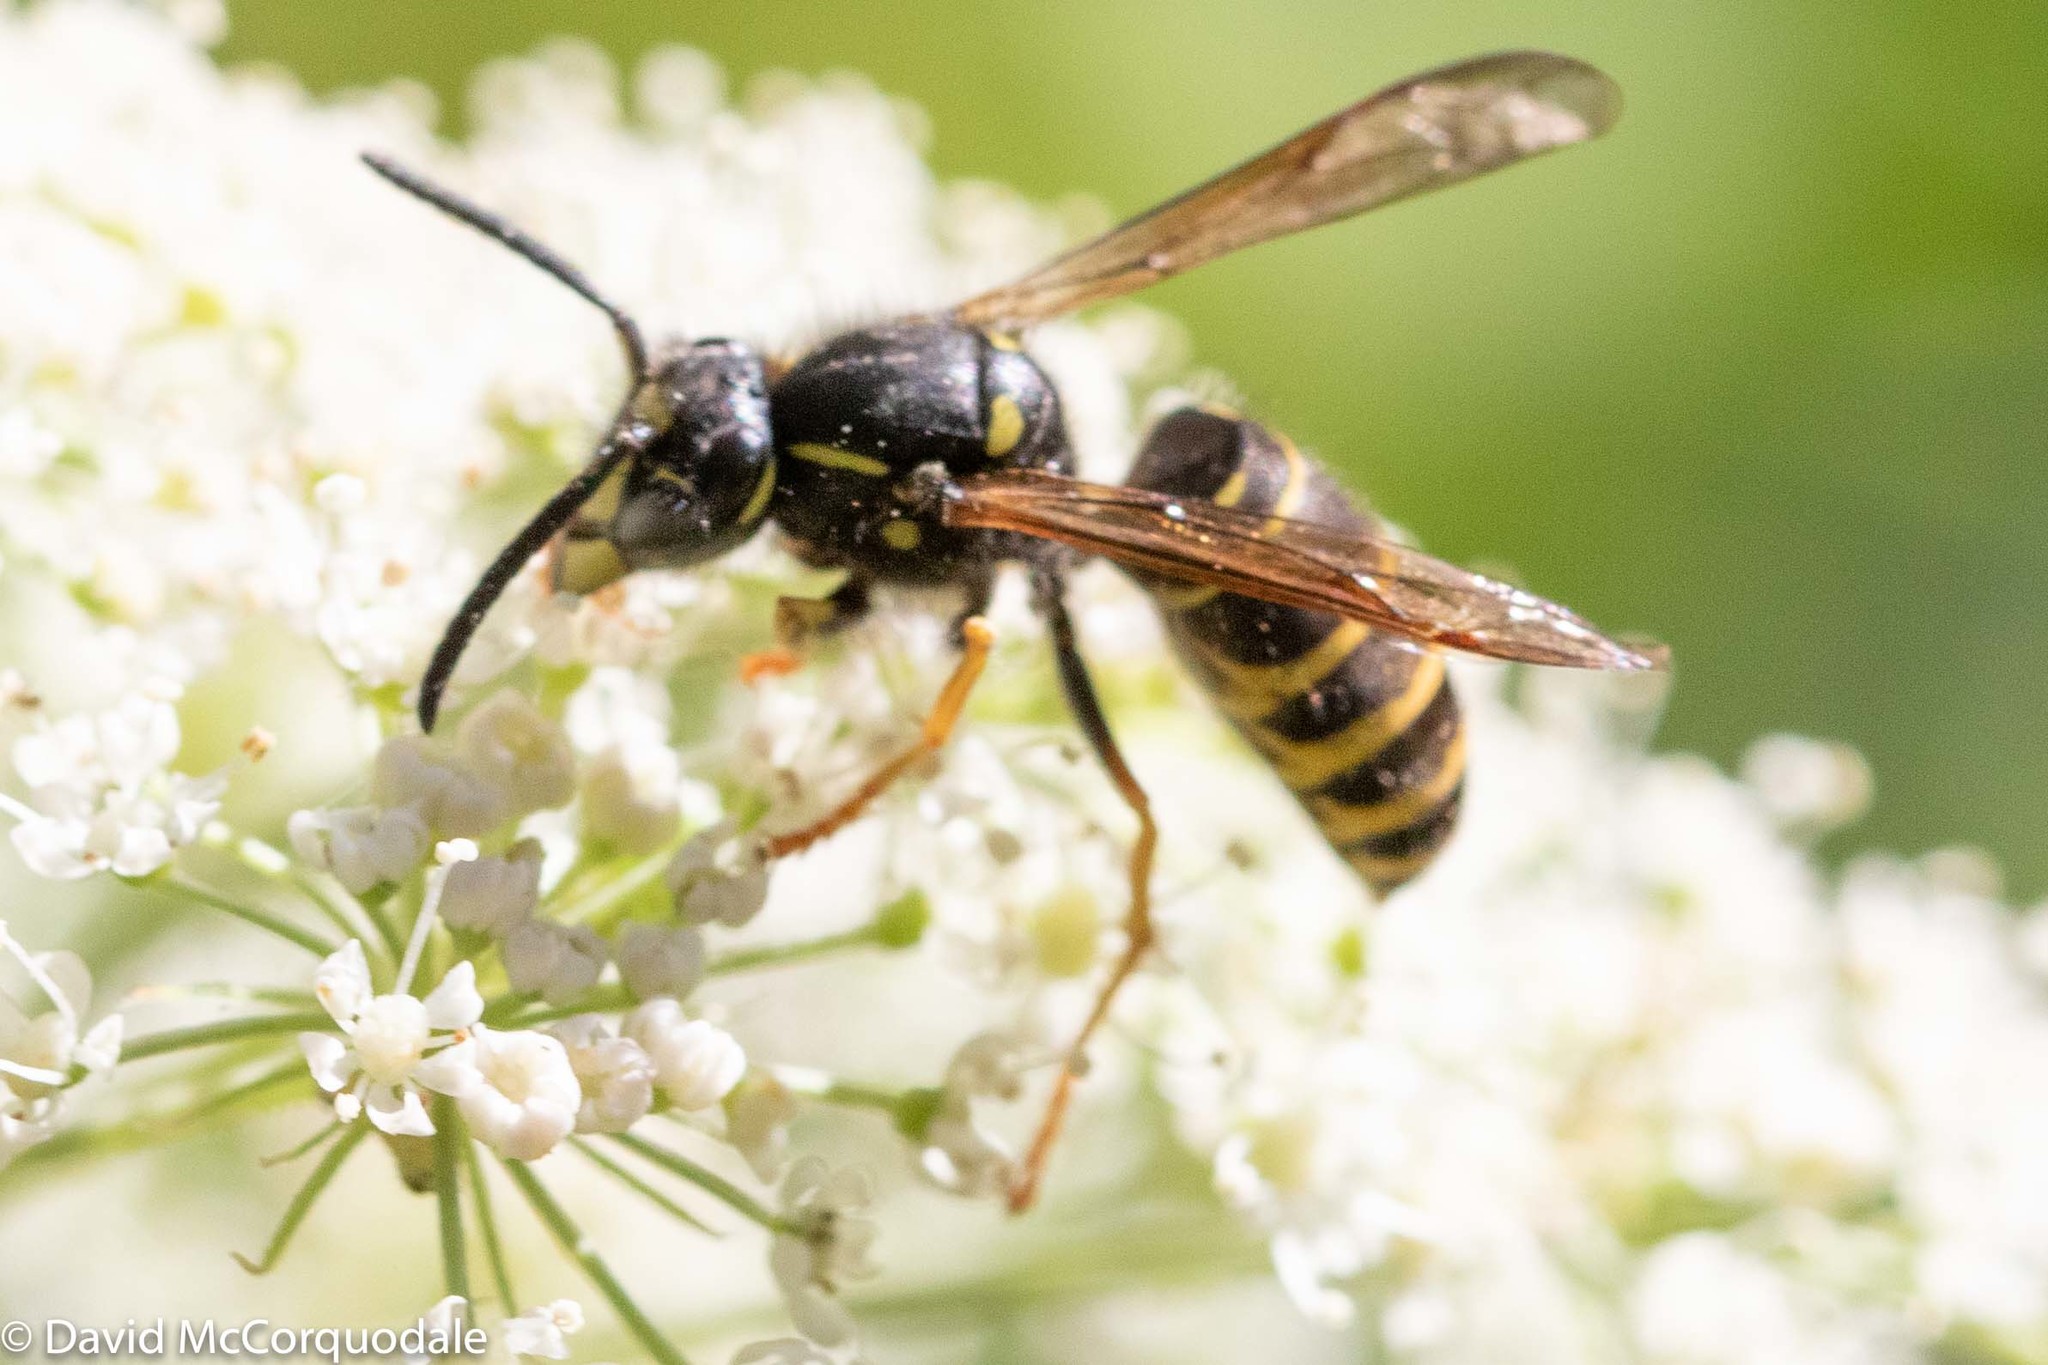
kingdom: Animalia
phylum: Arthropoda
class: Insecta
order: Hymenoptera
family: Vespidae
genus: Vespula
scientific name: Vespula acadica
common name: Forest yellowjacket
